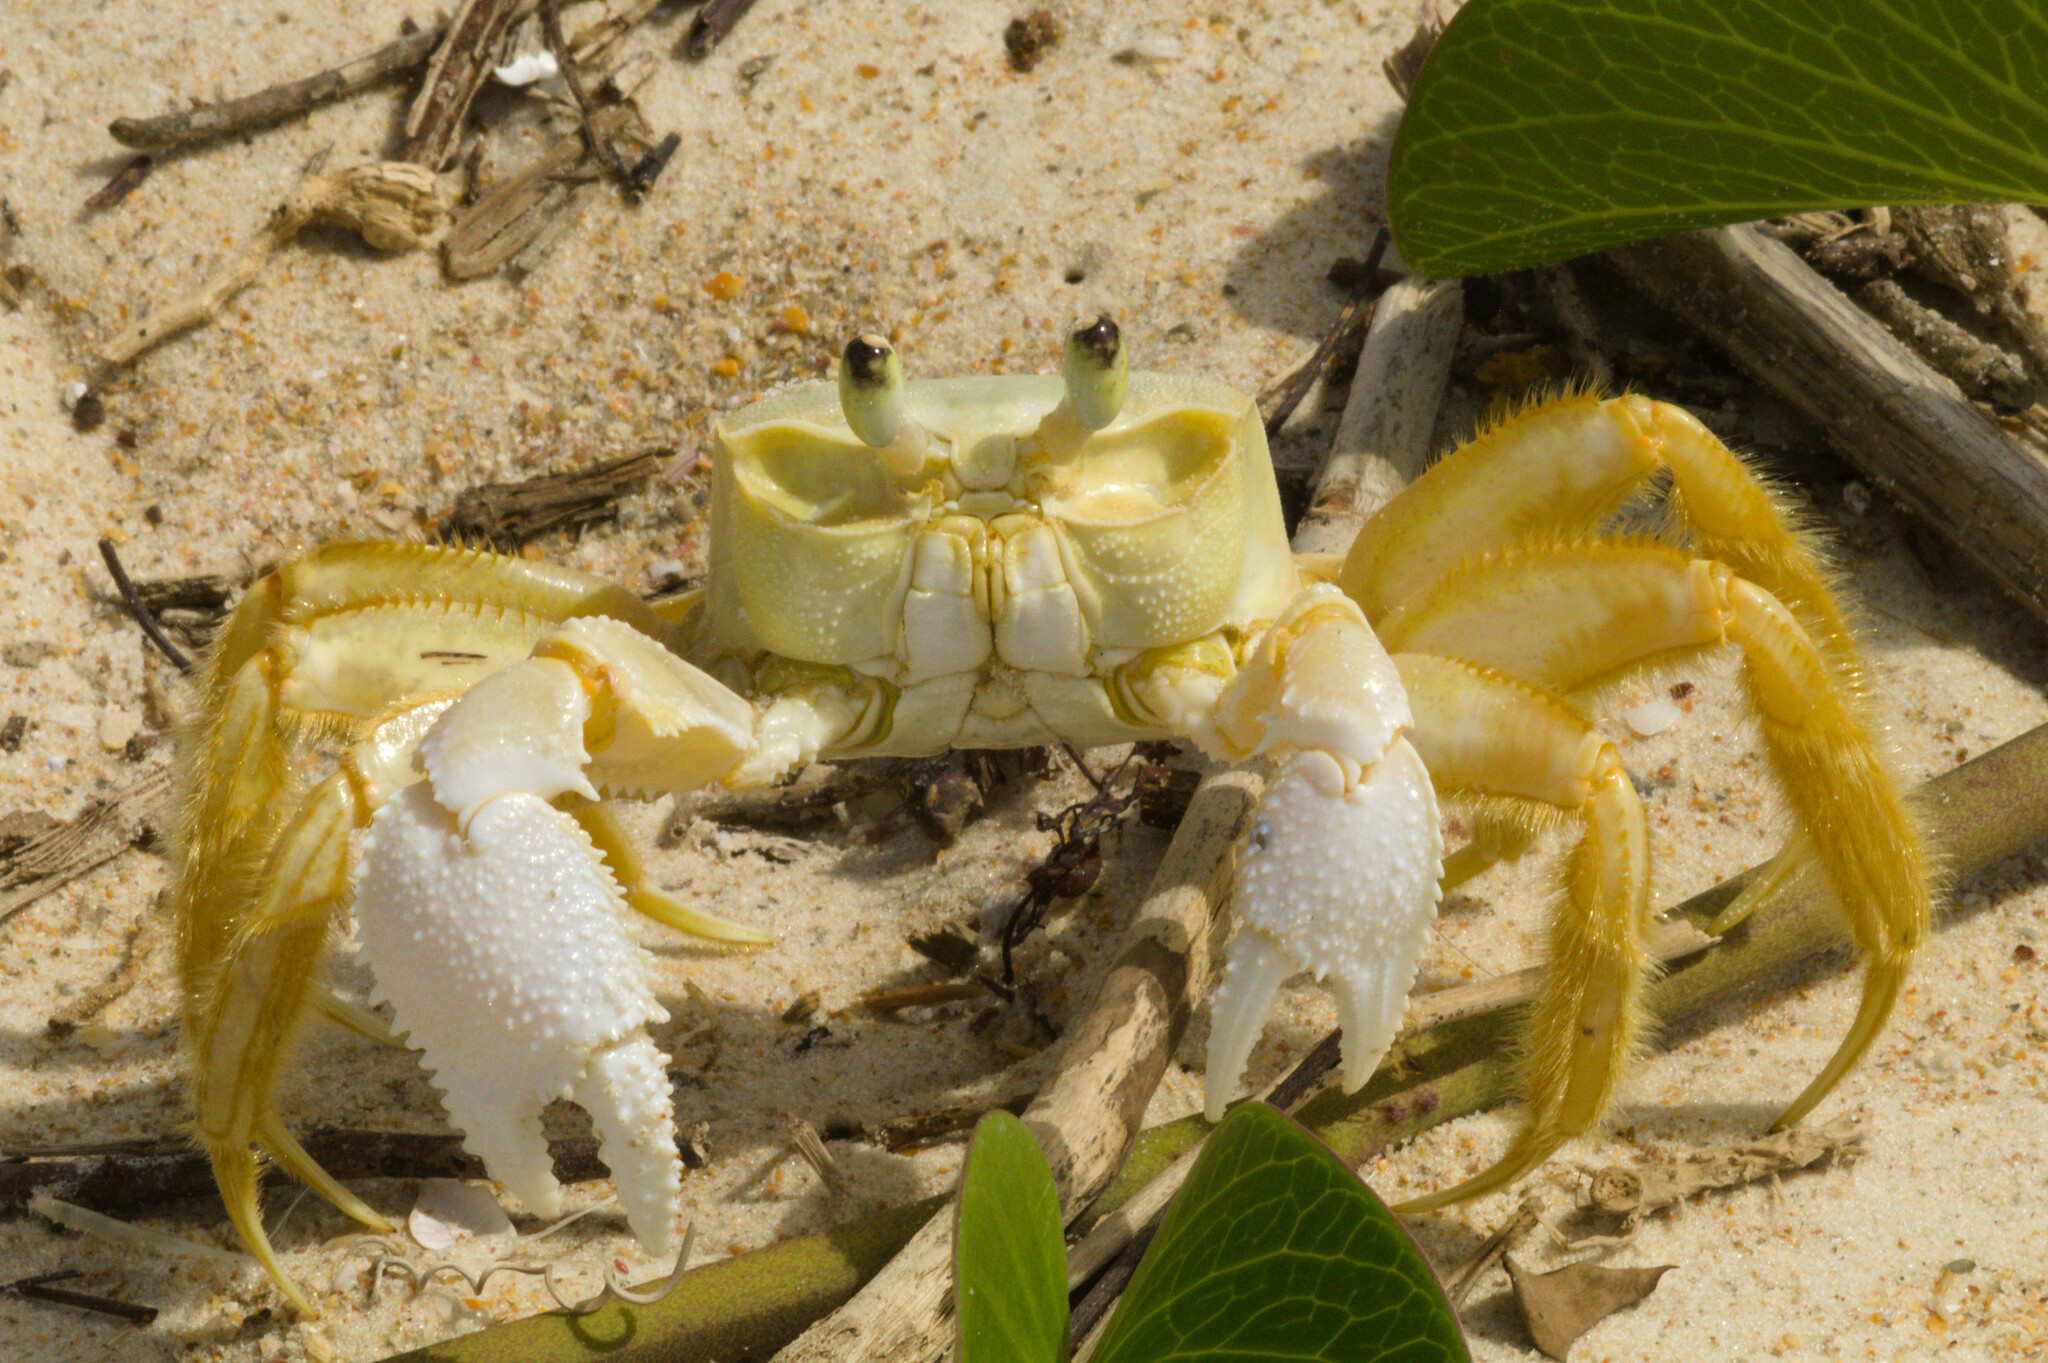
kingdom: Animalia
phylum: Arthropoda
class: Malacostraca
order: Decapoda
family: Ocypodidae
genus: Ocypode
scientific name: Ocypode quadrata
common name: Ghost crab
